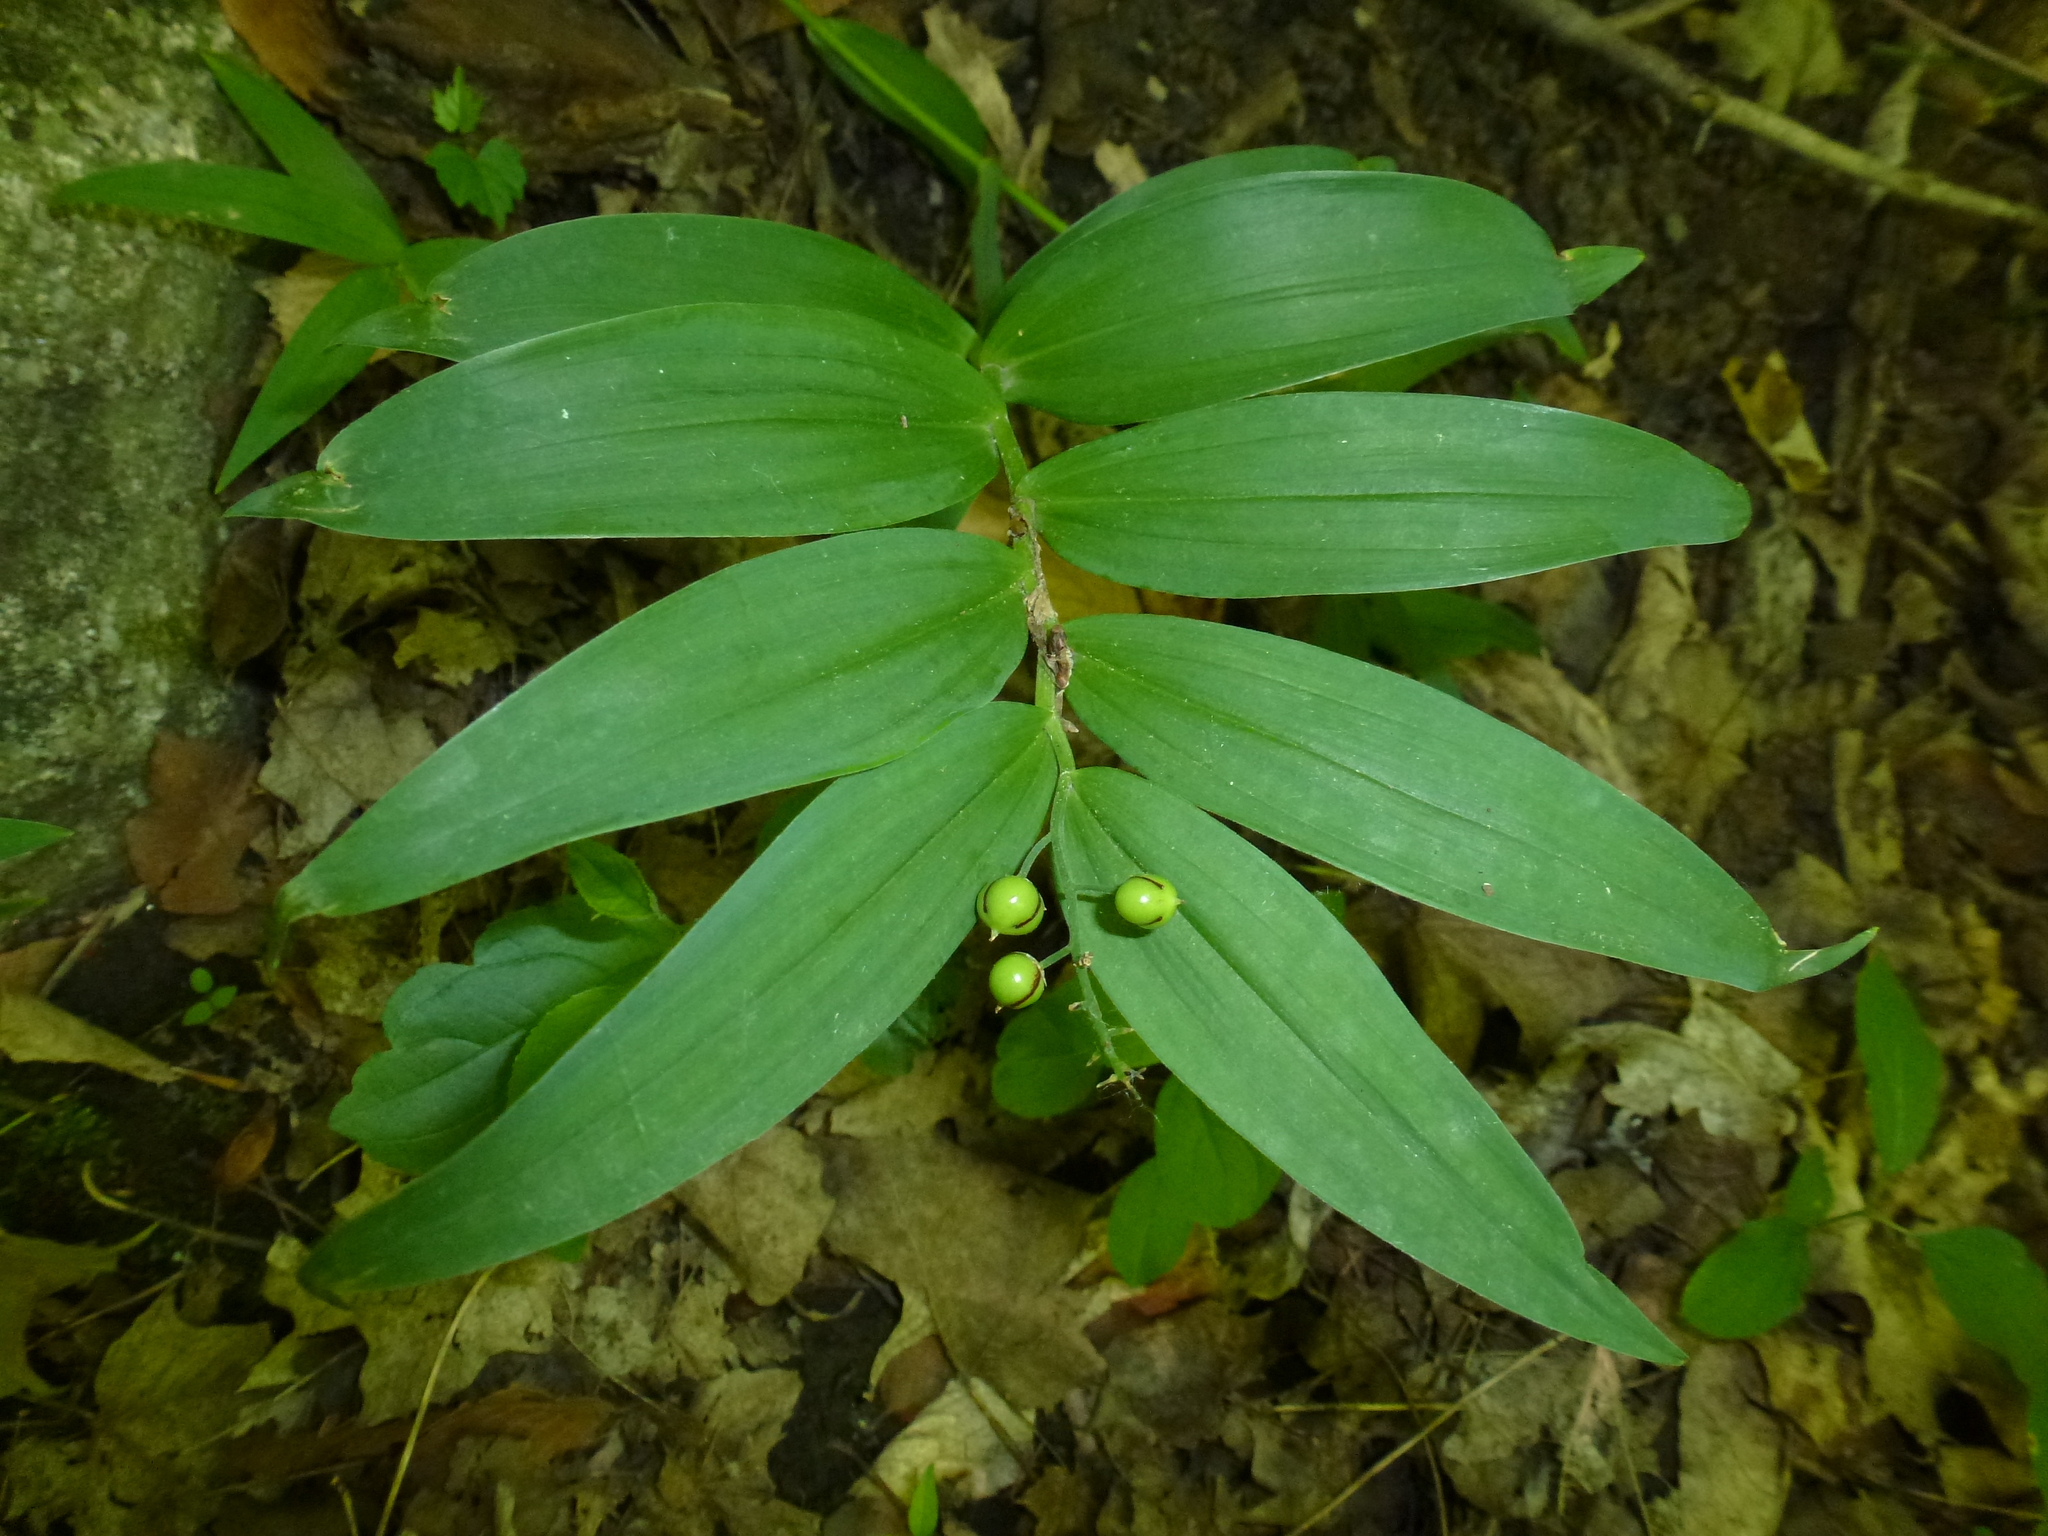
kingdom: Plantae
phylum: Tracheophyta
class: Liliopsida
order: Asparagales
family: Asparagaceae
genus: Maianthemum
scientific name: Maianthemum stellatum
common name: Little false solomon's seal
